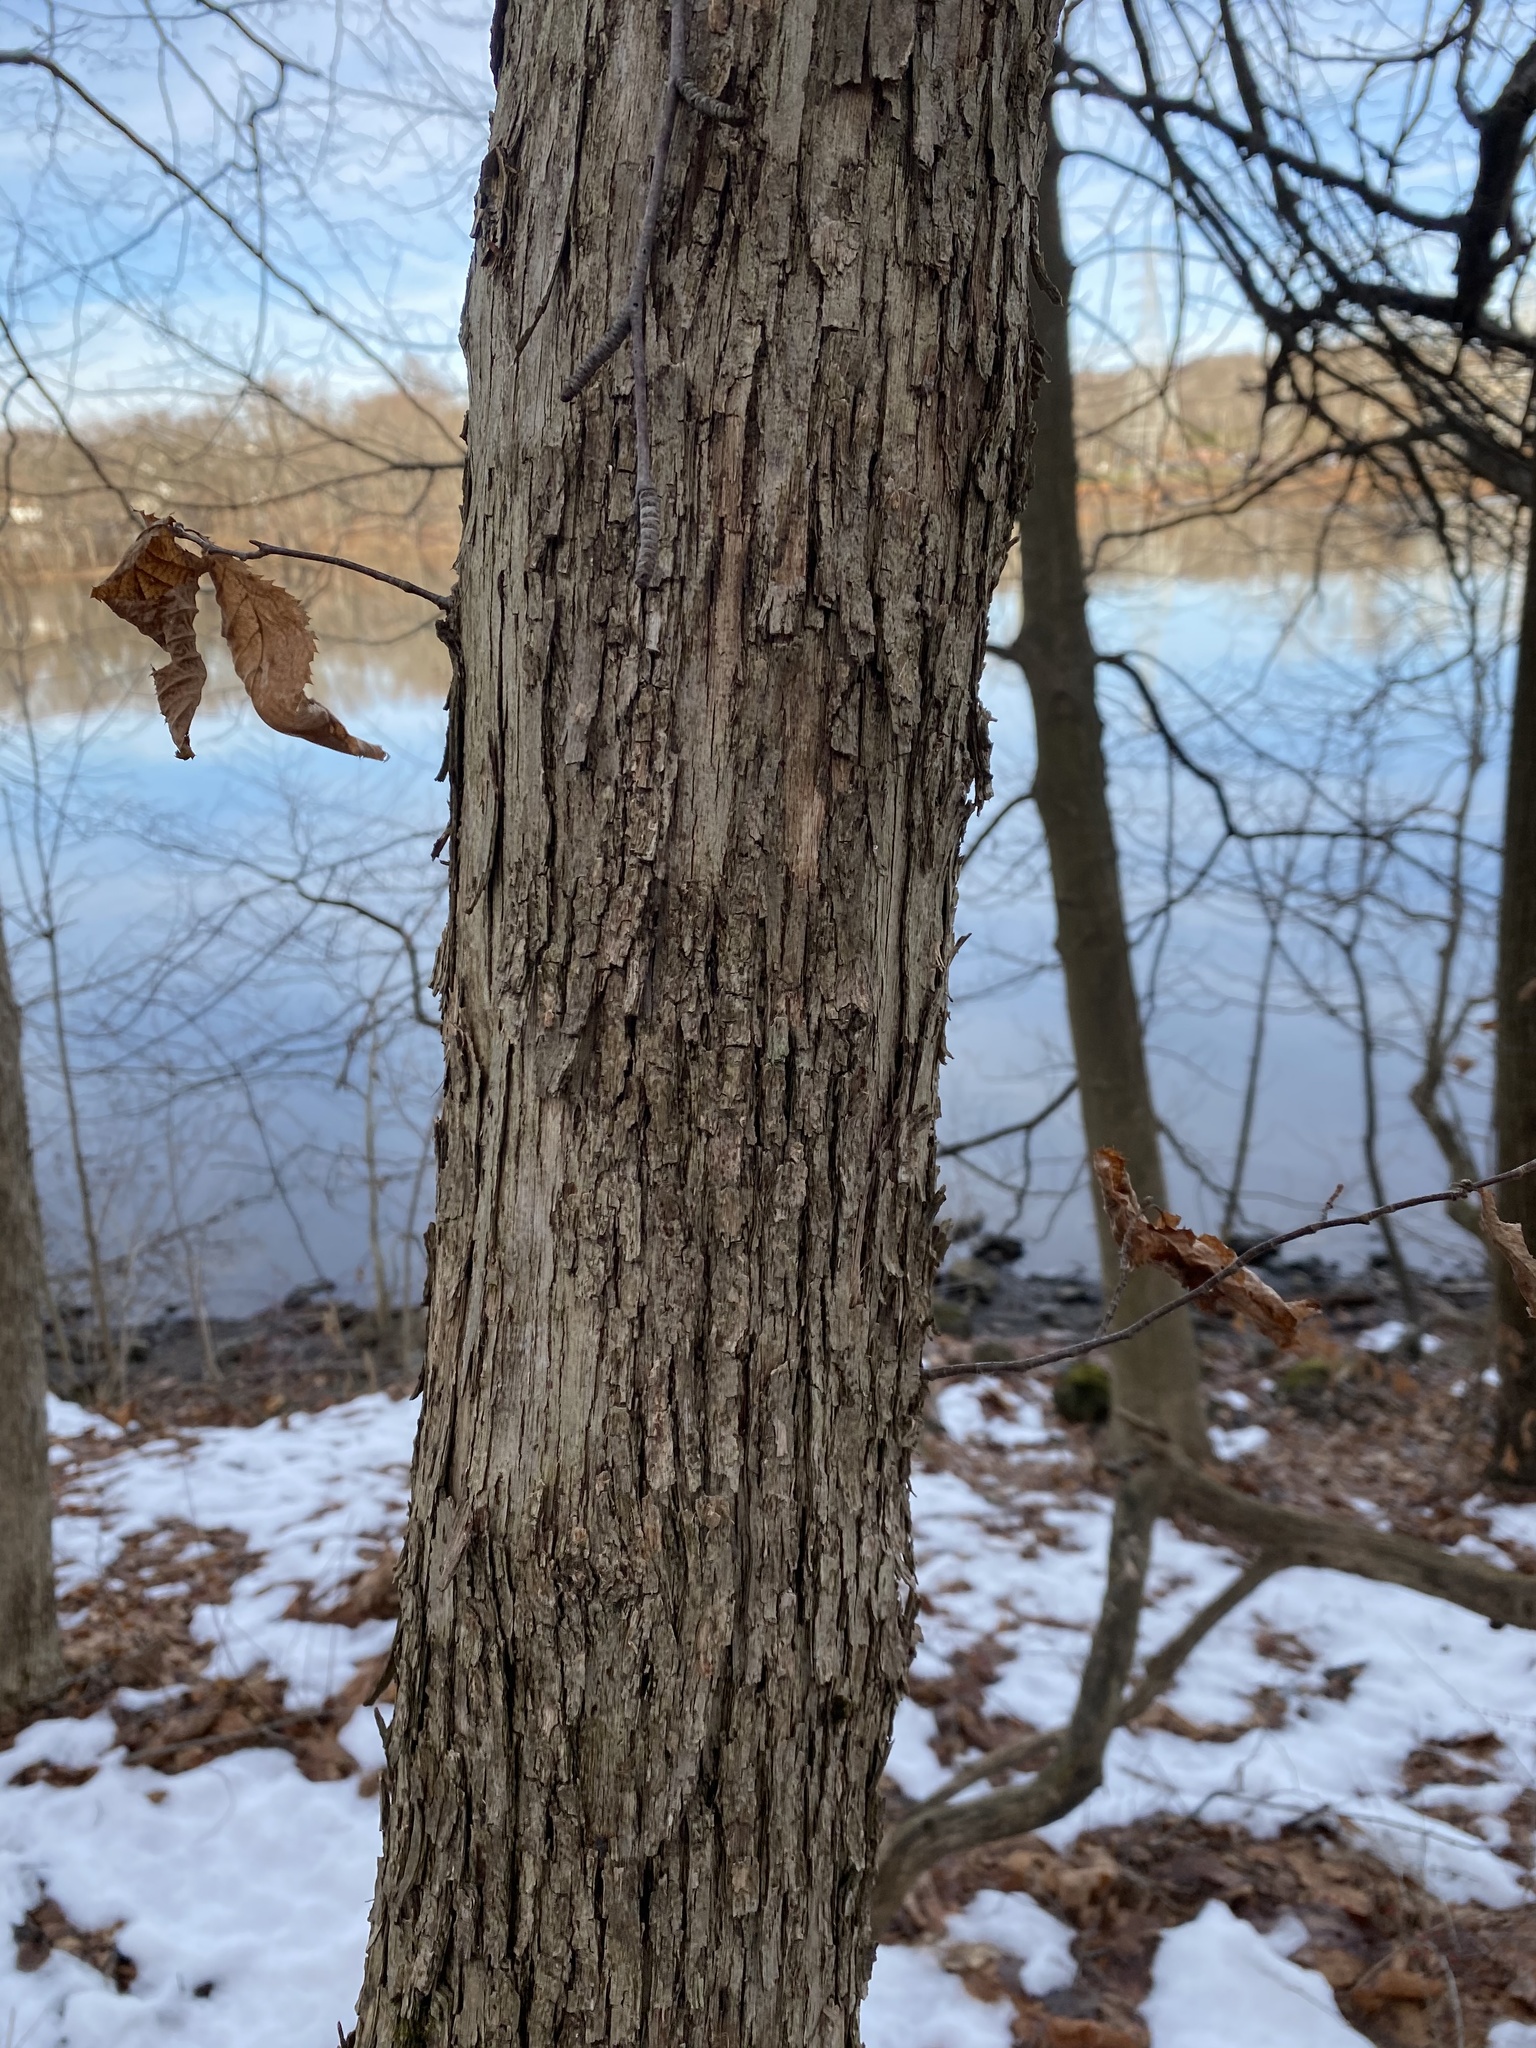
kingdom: Plantae
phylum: Tracheophyta
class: Magnoliopsida
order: Fagales
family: Betulaceae
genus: Ostrya
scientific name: Ostrya virginiana
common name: Ironwood
